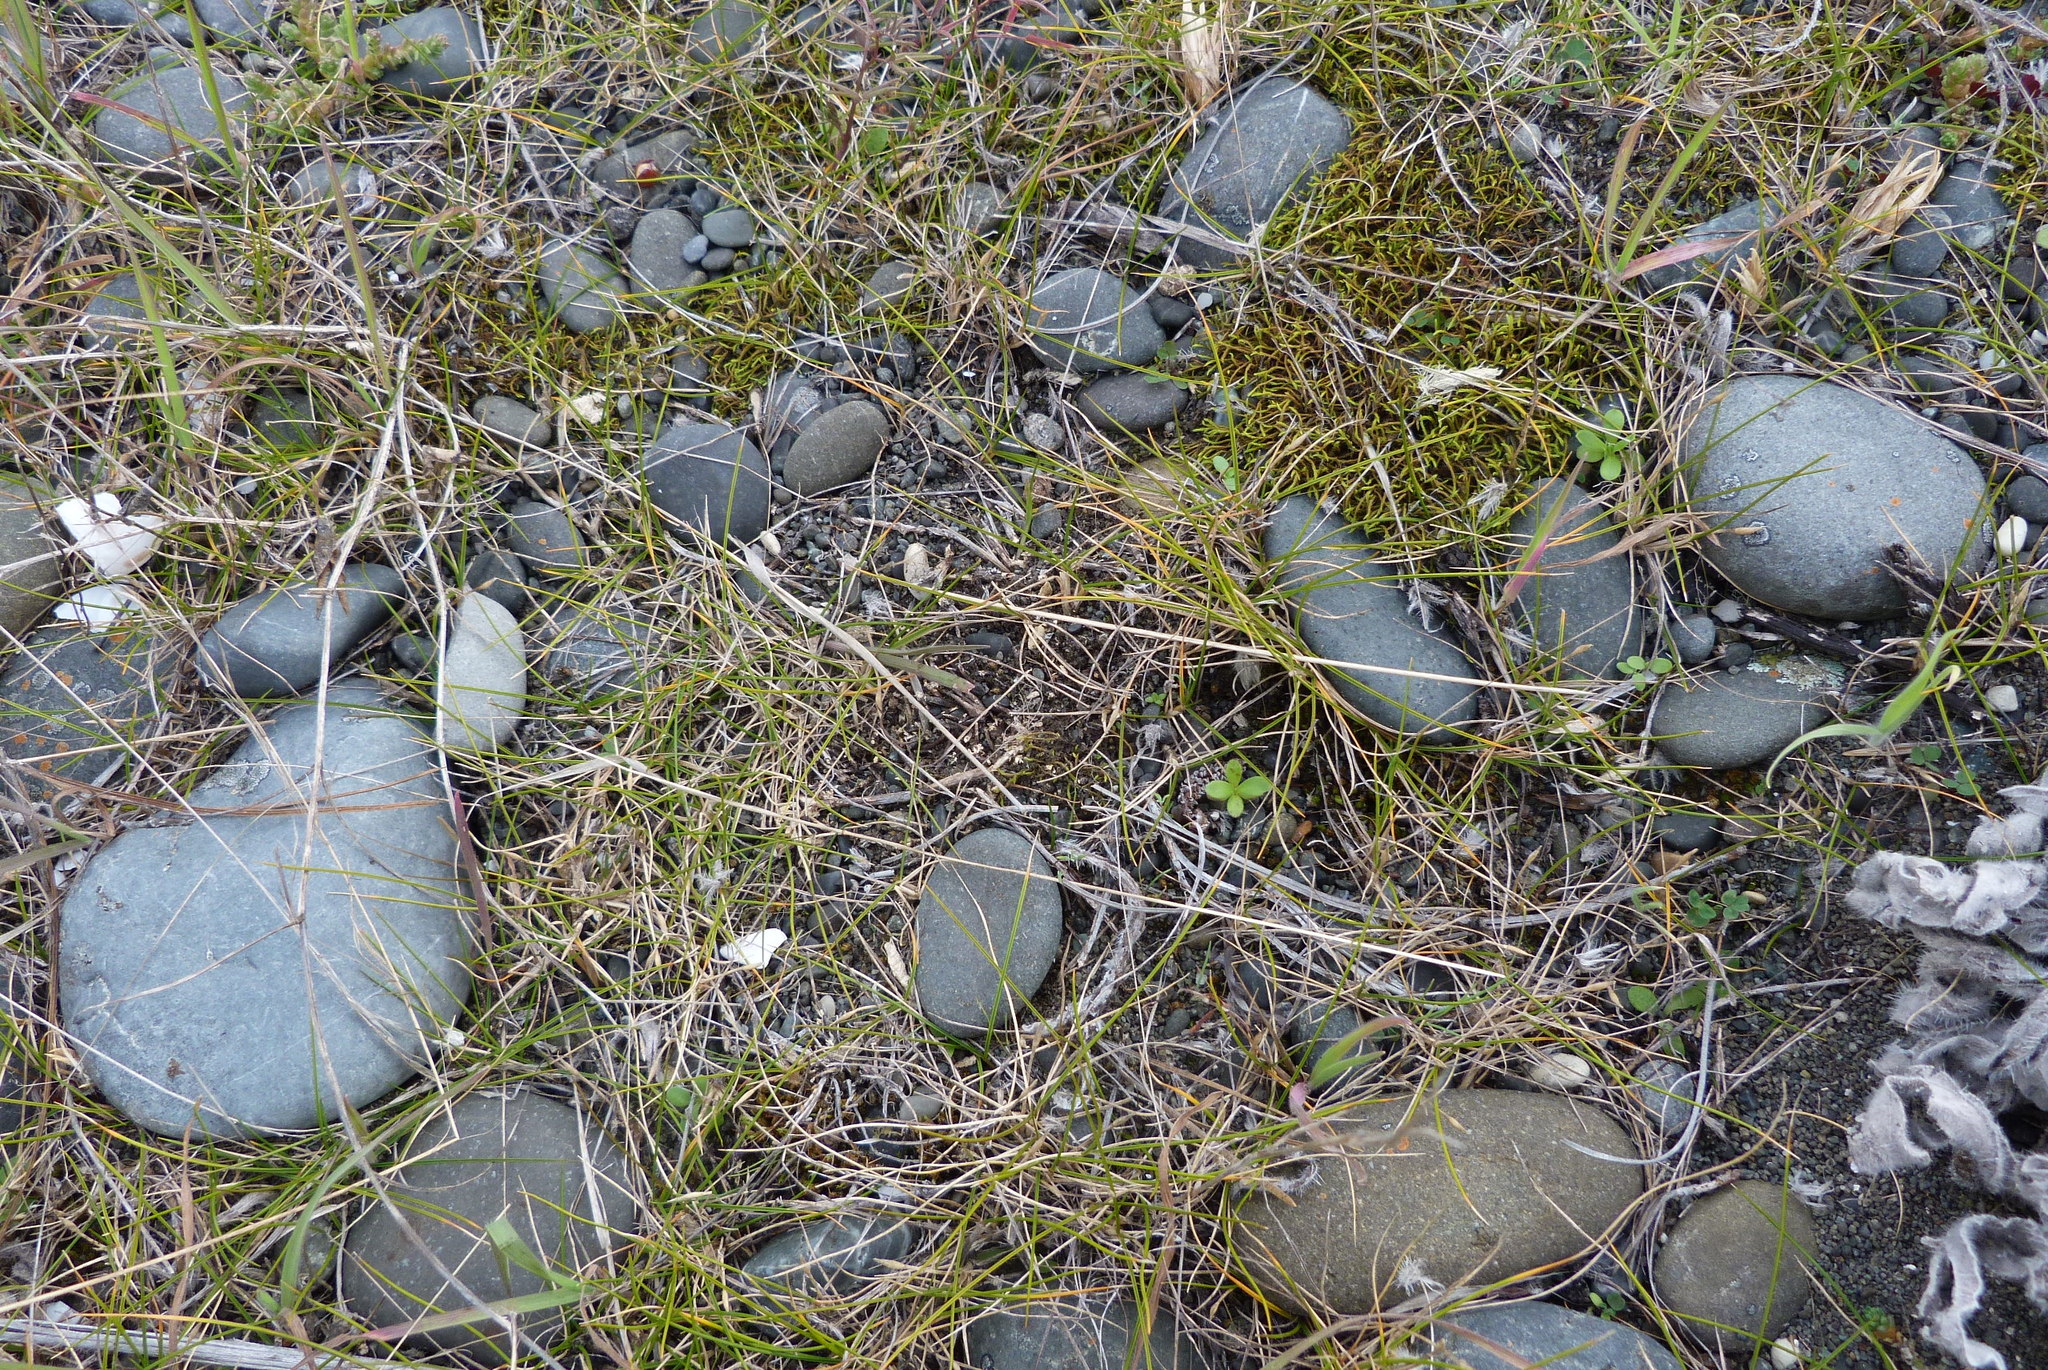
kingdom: Plantae
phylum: Tracheophyta
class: Liliopsida
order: Poales
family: Poaceae
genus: Zoysia
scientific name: Zoysia minima
